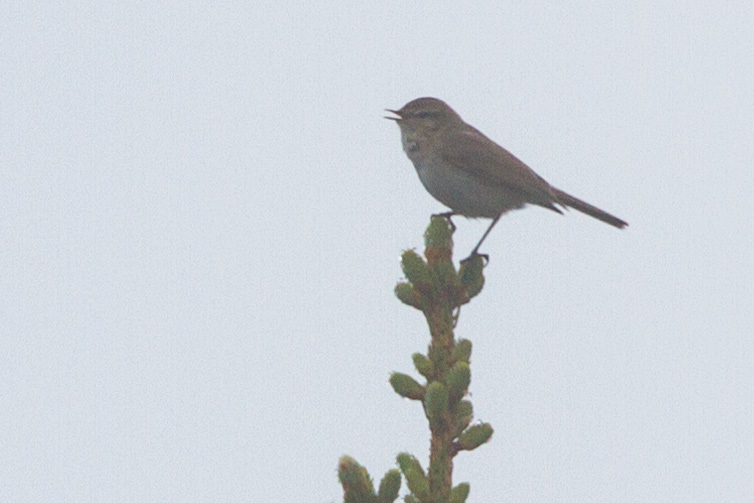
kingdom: Animalia
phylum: Chordata
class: Aves
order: Passeriformes
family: Phylloscopidae
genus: Phylloscopus
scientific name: Phylloscopus collybita
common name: Common chiffchaff
